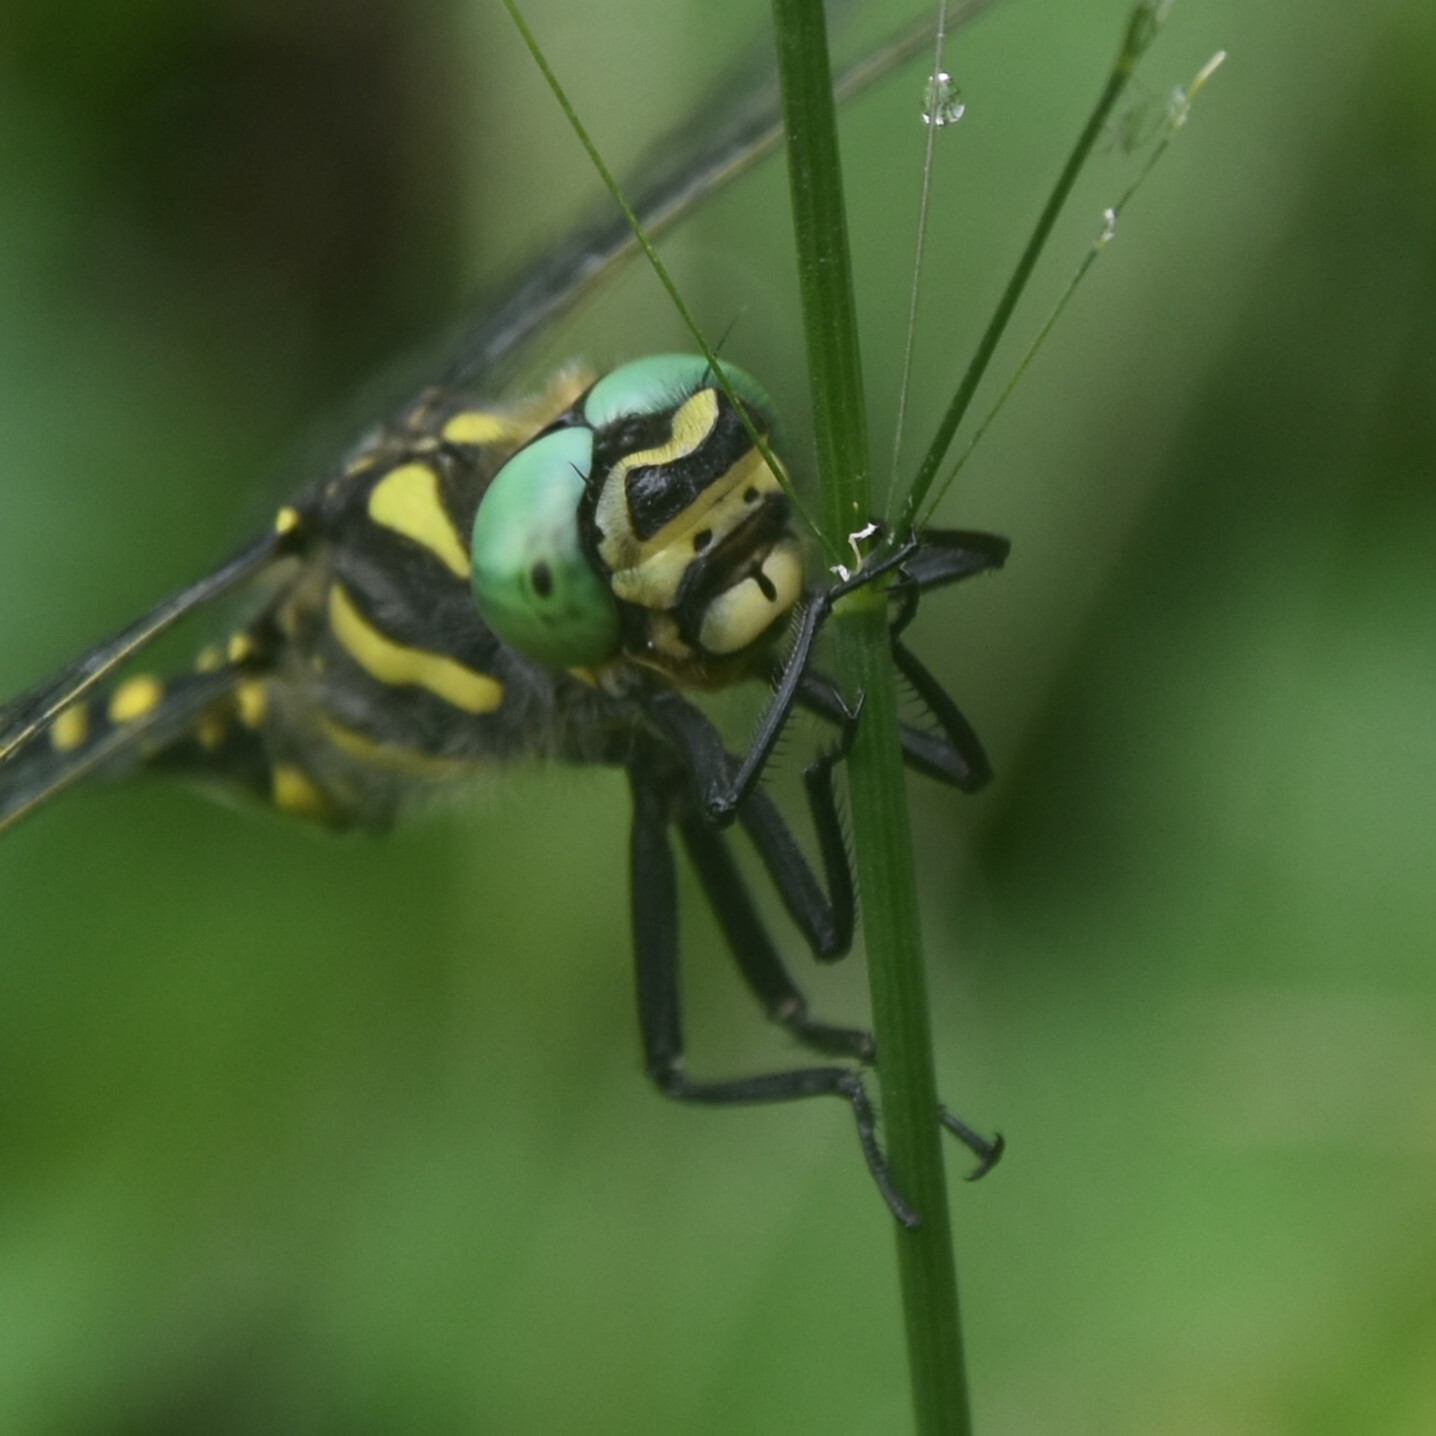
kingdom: Animalia
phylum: Arthropoda
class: Insecta
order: Odonata
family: Cordulegastridae
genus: Cordulegaster
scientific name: Cordulegaster brevistigma
